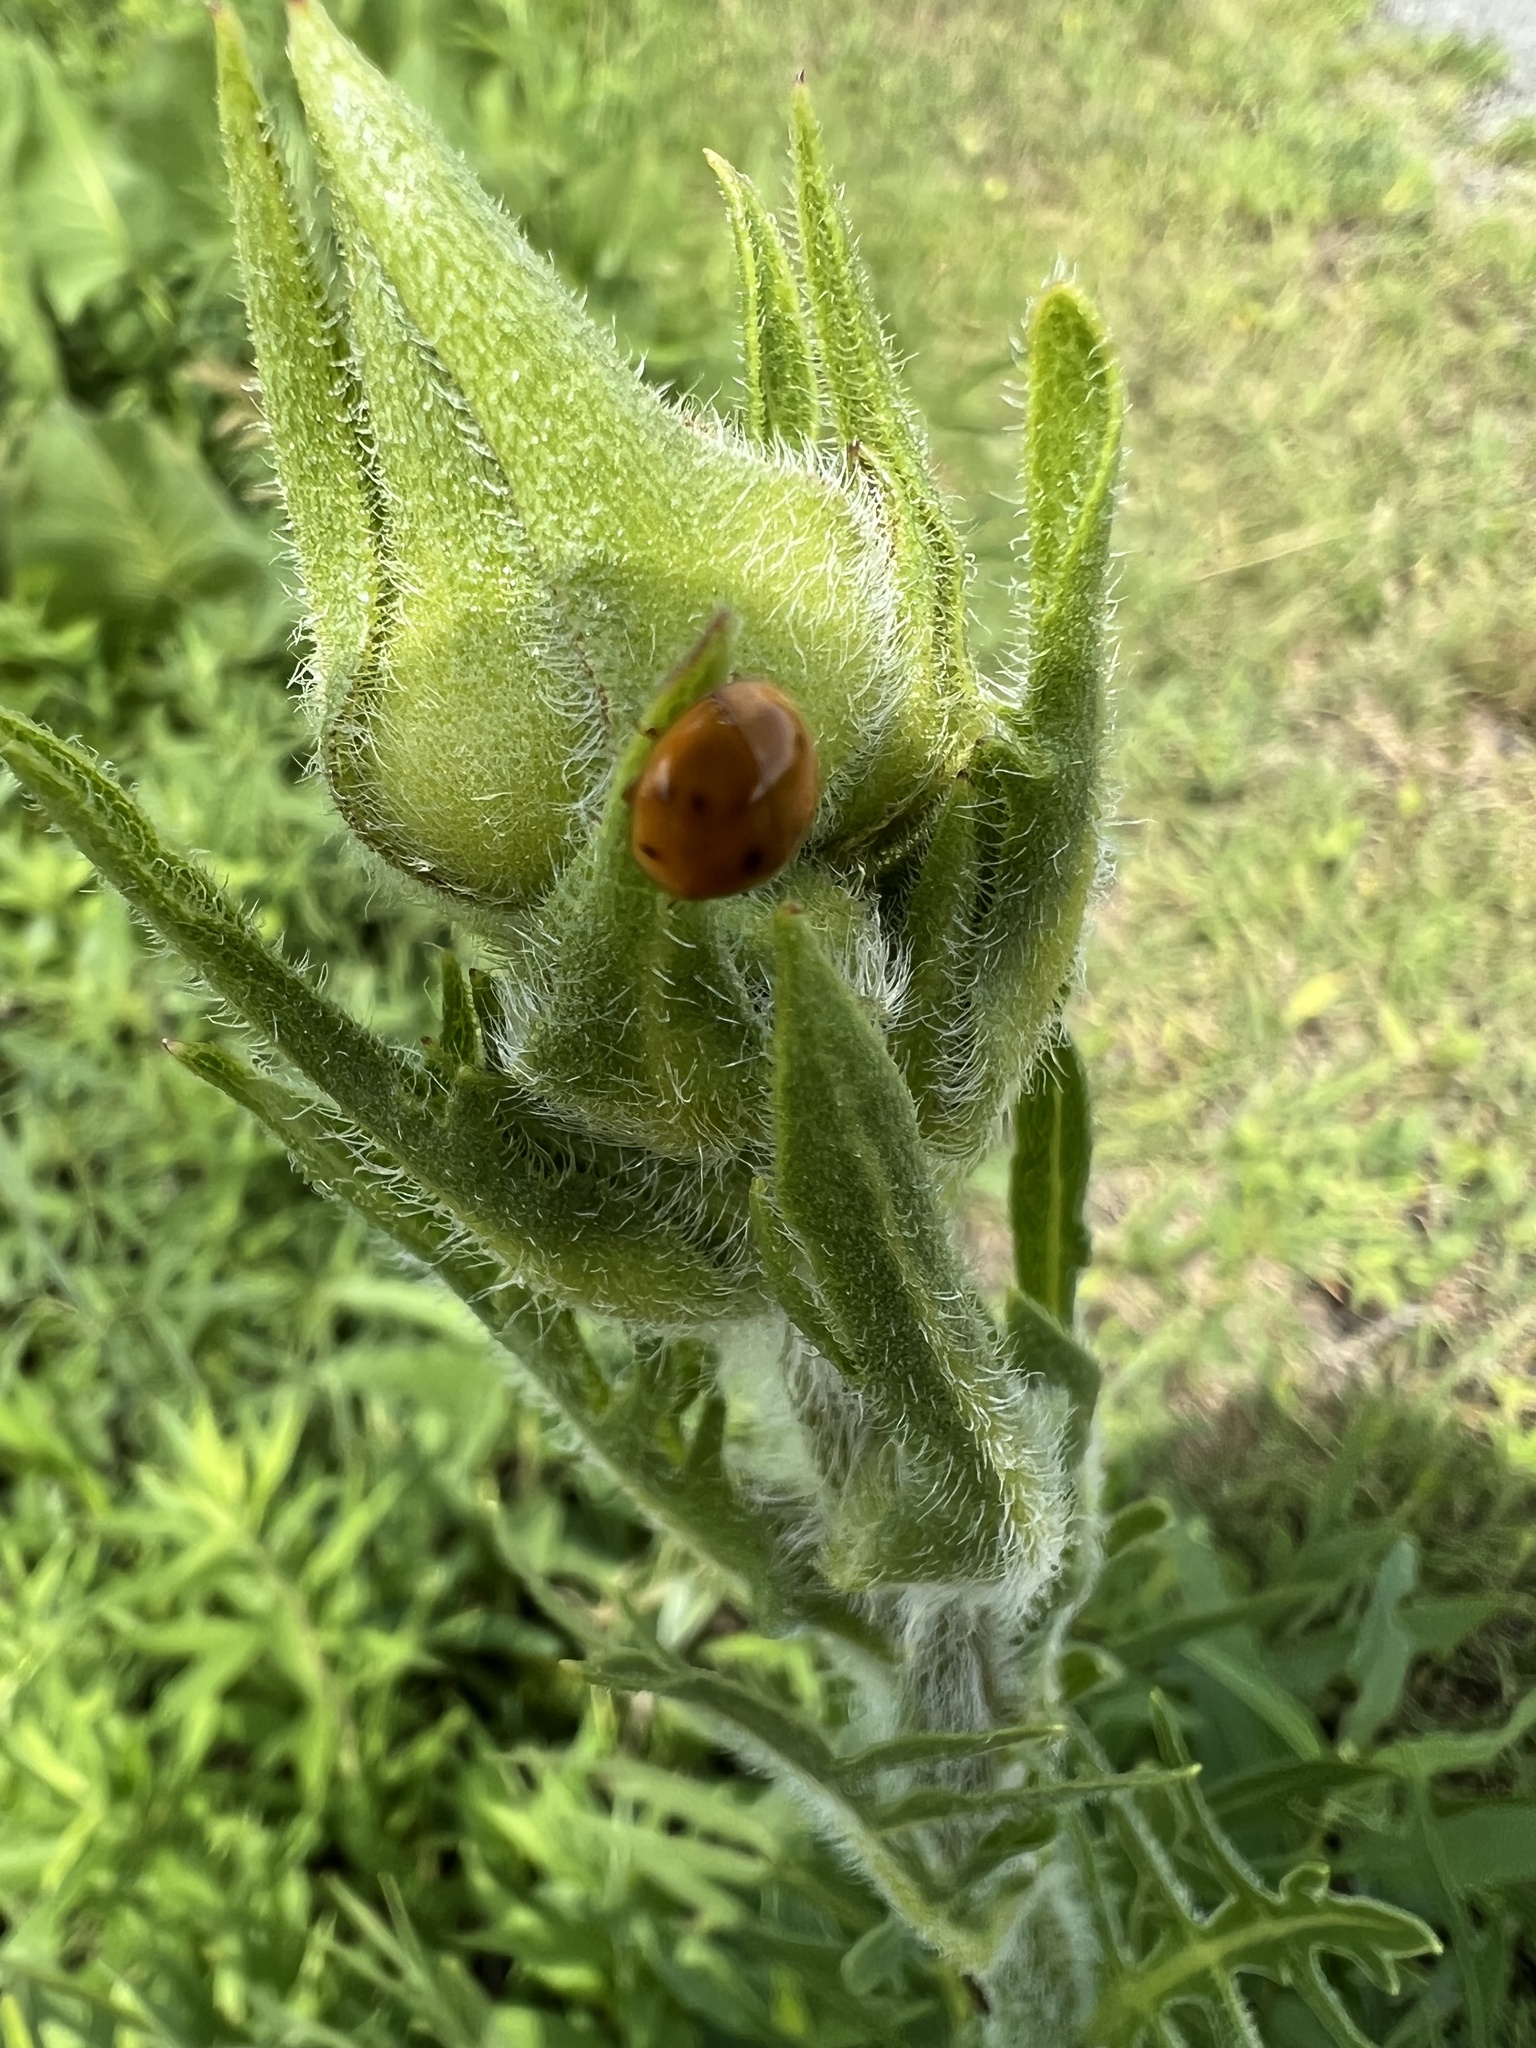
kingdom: Animalia
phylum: Arthropoda
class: Insecta
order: Coleoptera
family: Coccinellidae
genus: Harmonia
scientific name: Harmonia axyridis
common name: Harlequin ladybird
